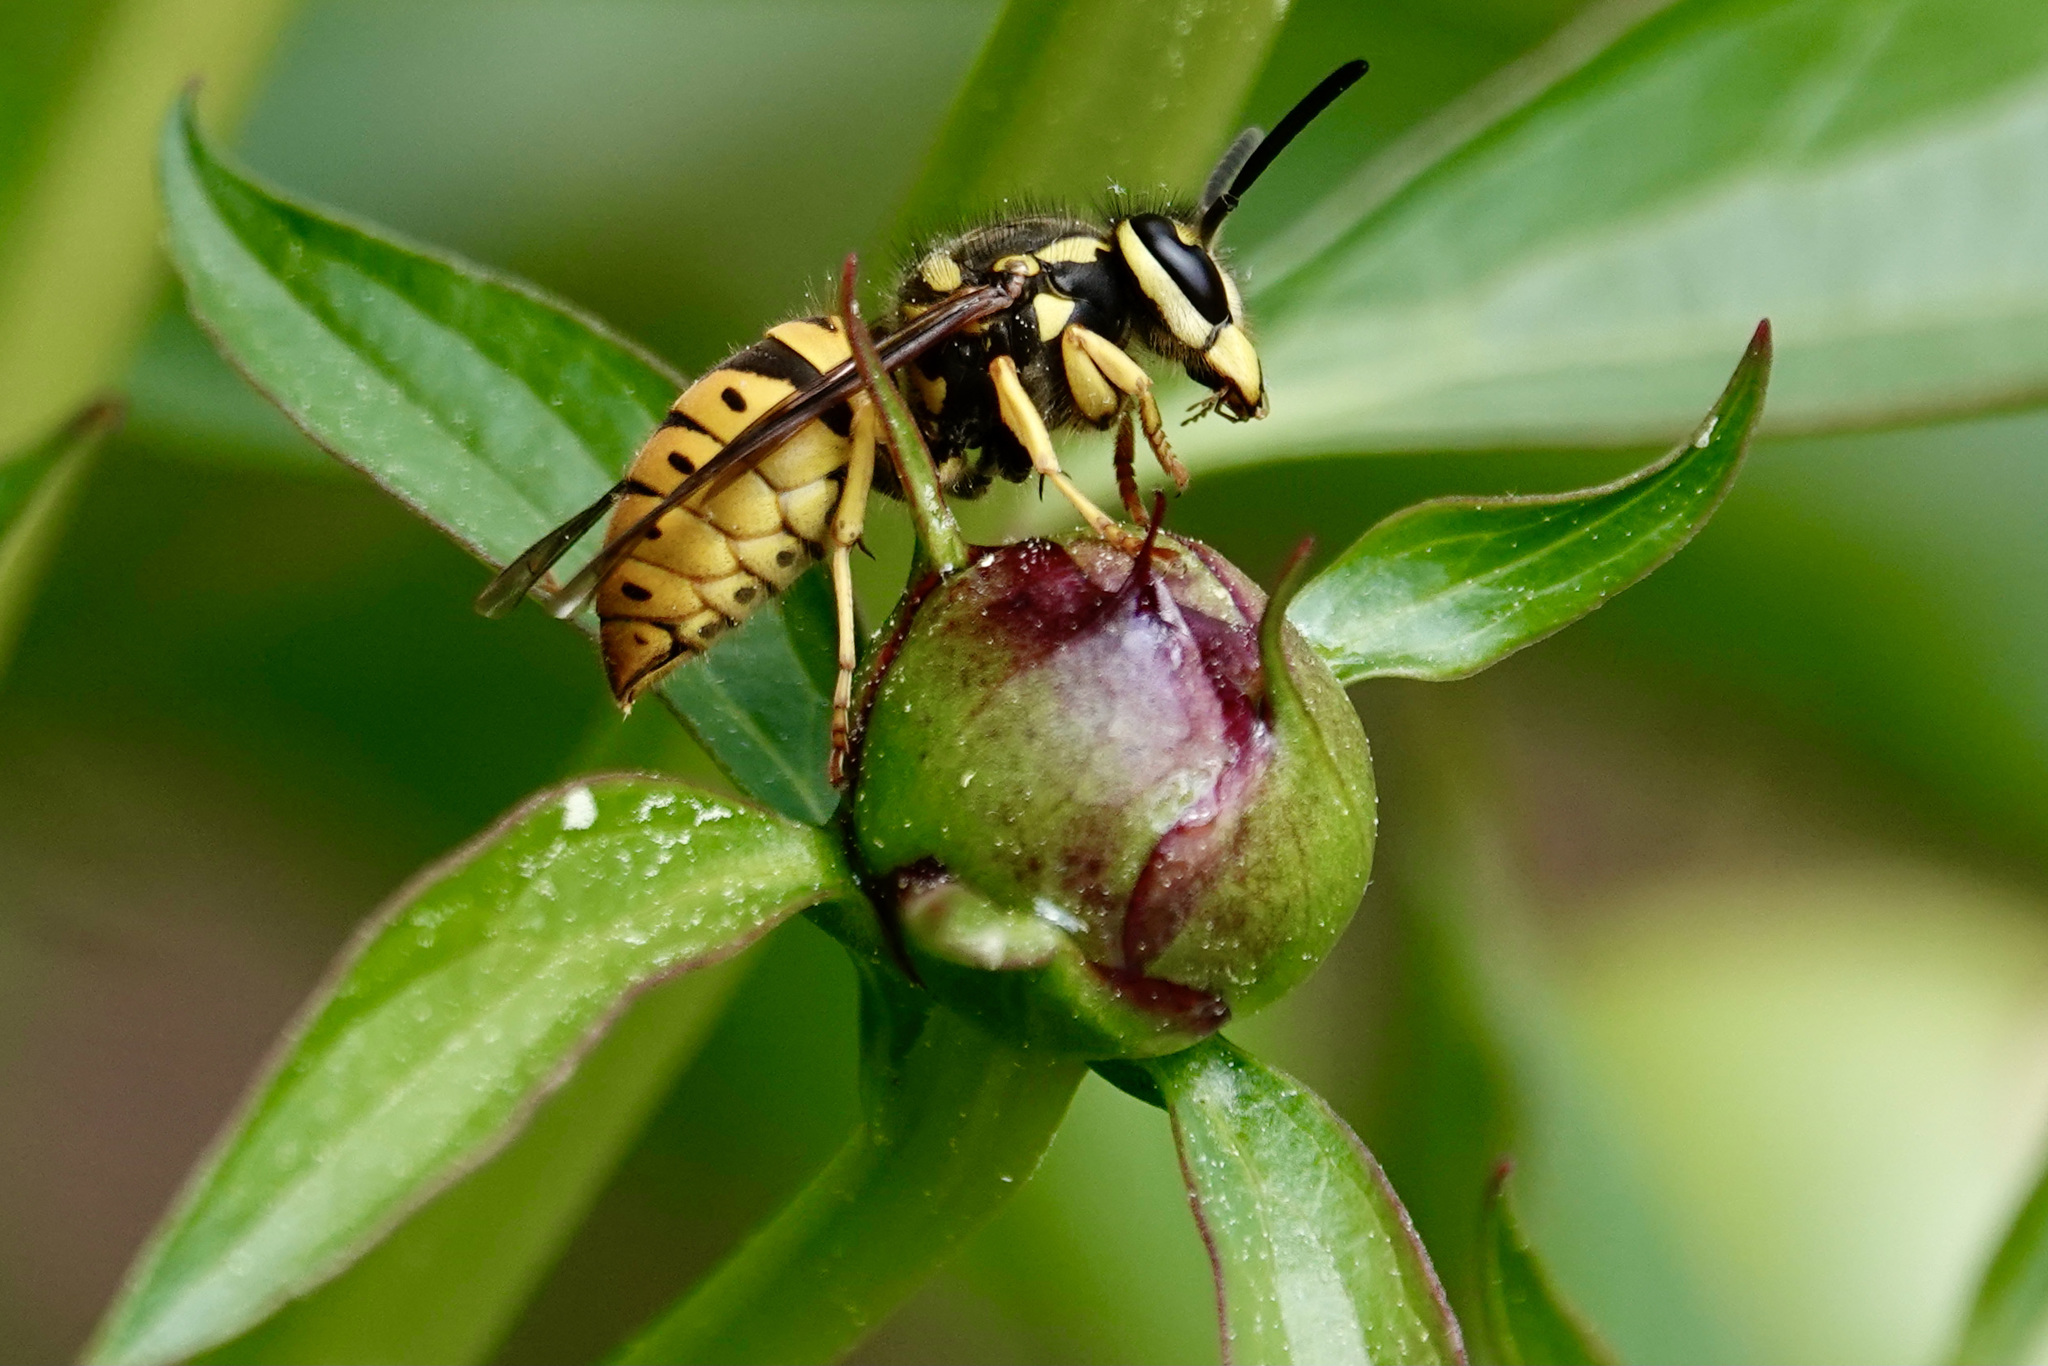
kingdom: Animalia
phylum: Arthropoda
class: Insecta
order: Hymenoptera
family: Vespidae
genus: Vespula
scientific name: Vespula maculifrons
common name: Eastern yellowjacket
